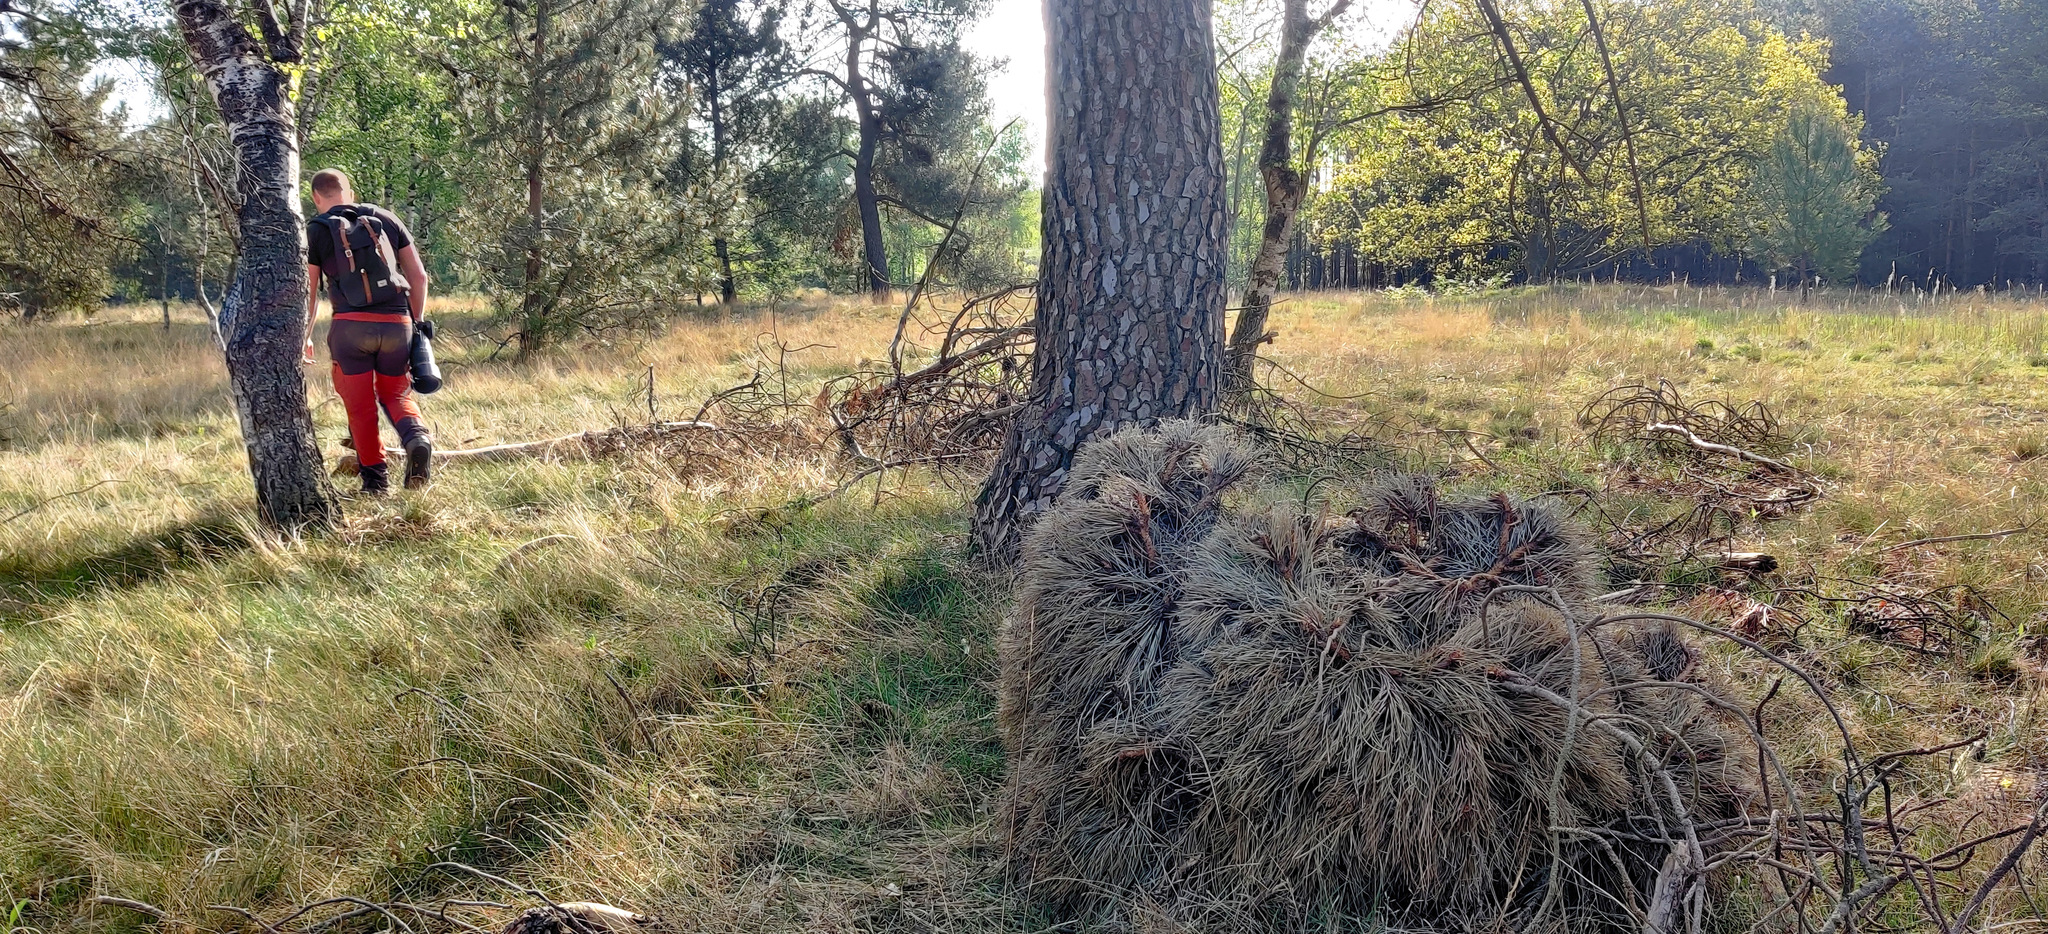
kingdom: Bacteria
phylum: Firmicutes
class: Bacilli
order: Acholeplasmatales
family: Acholeplasmataceae
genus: Phytoplasma
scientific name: Phytoplasma pini
